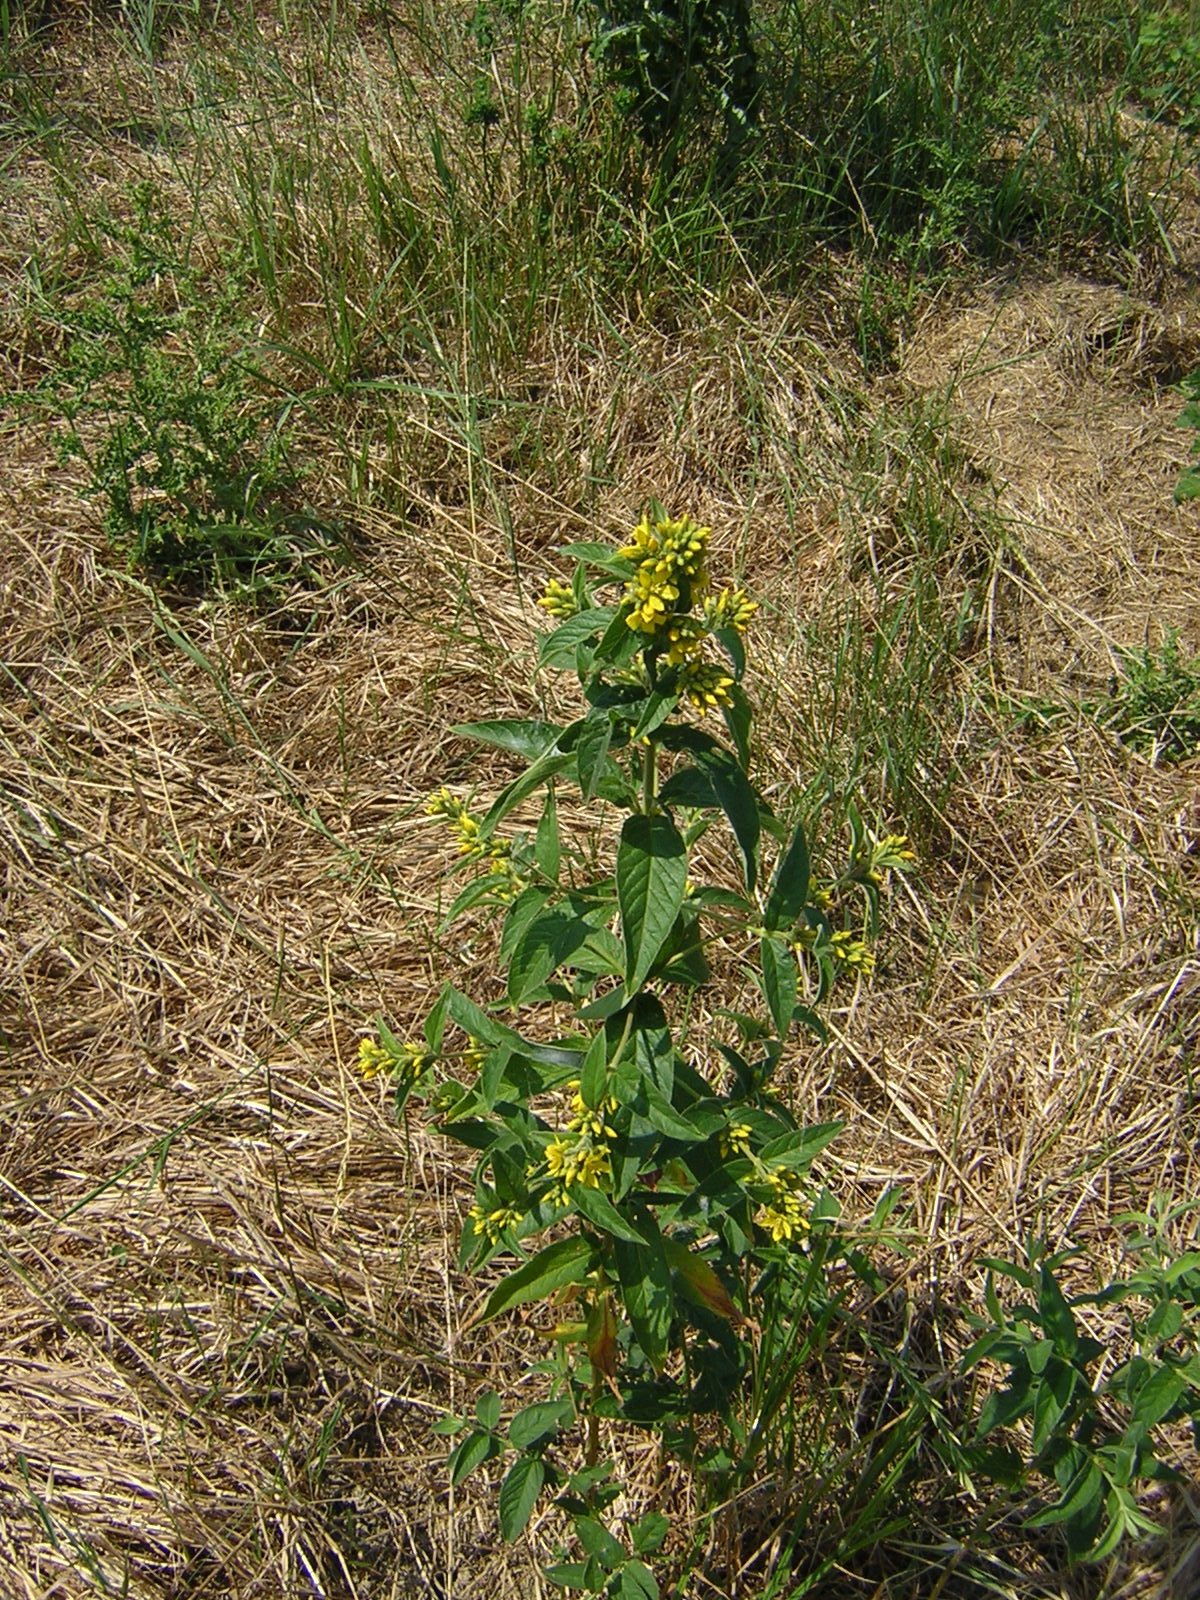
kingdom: Plantae
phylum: Tracheophyta
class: Magnoliopsida
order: Ericales
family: Primulaceae
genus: Lysimachia
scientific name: Lysimachia vulgaris
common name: Yellow loosestrife
